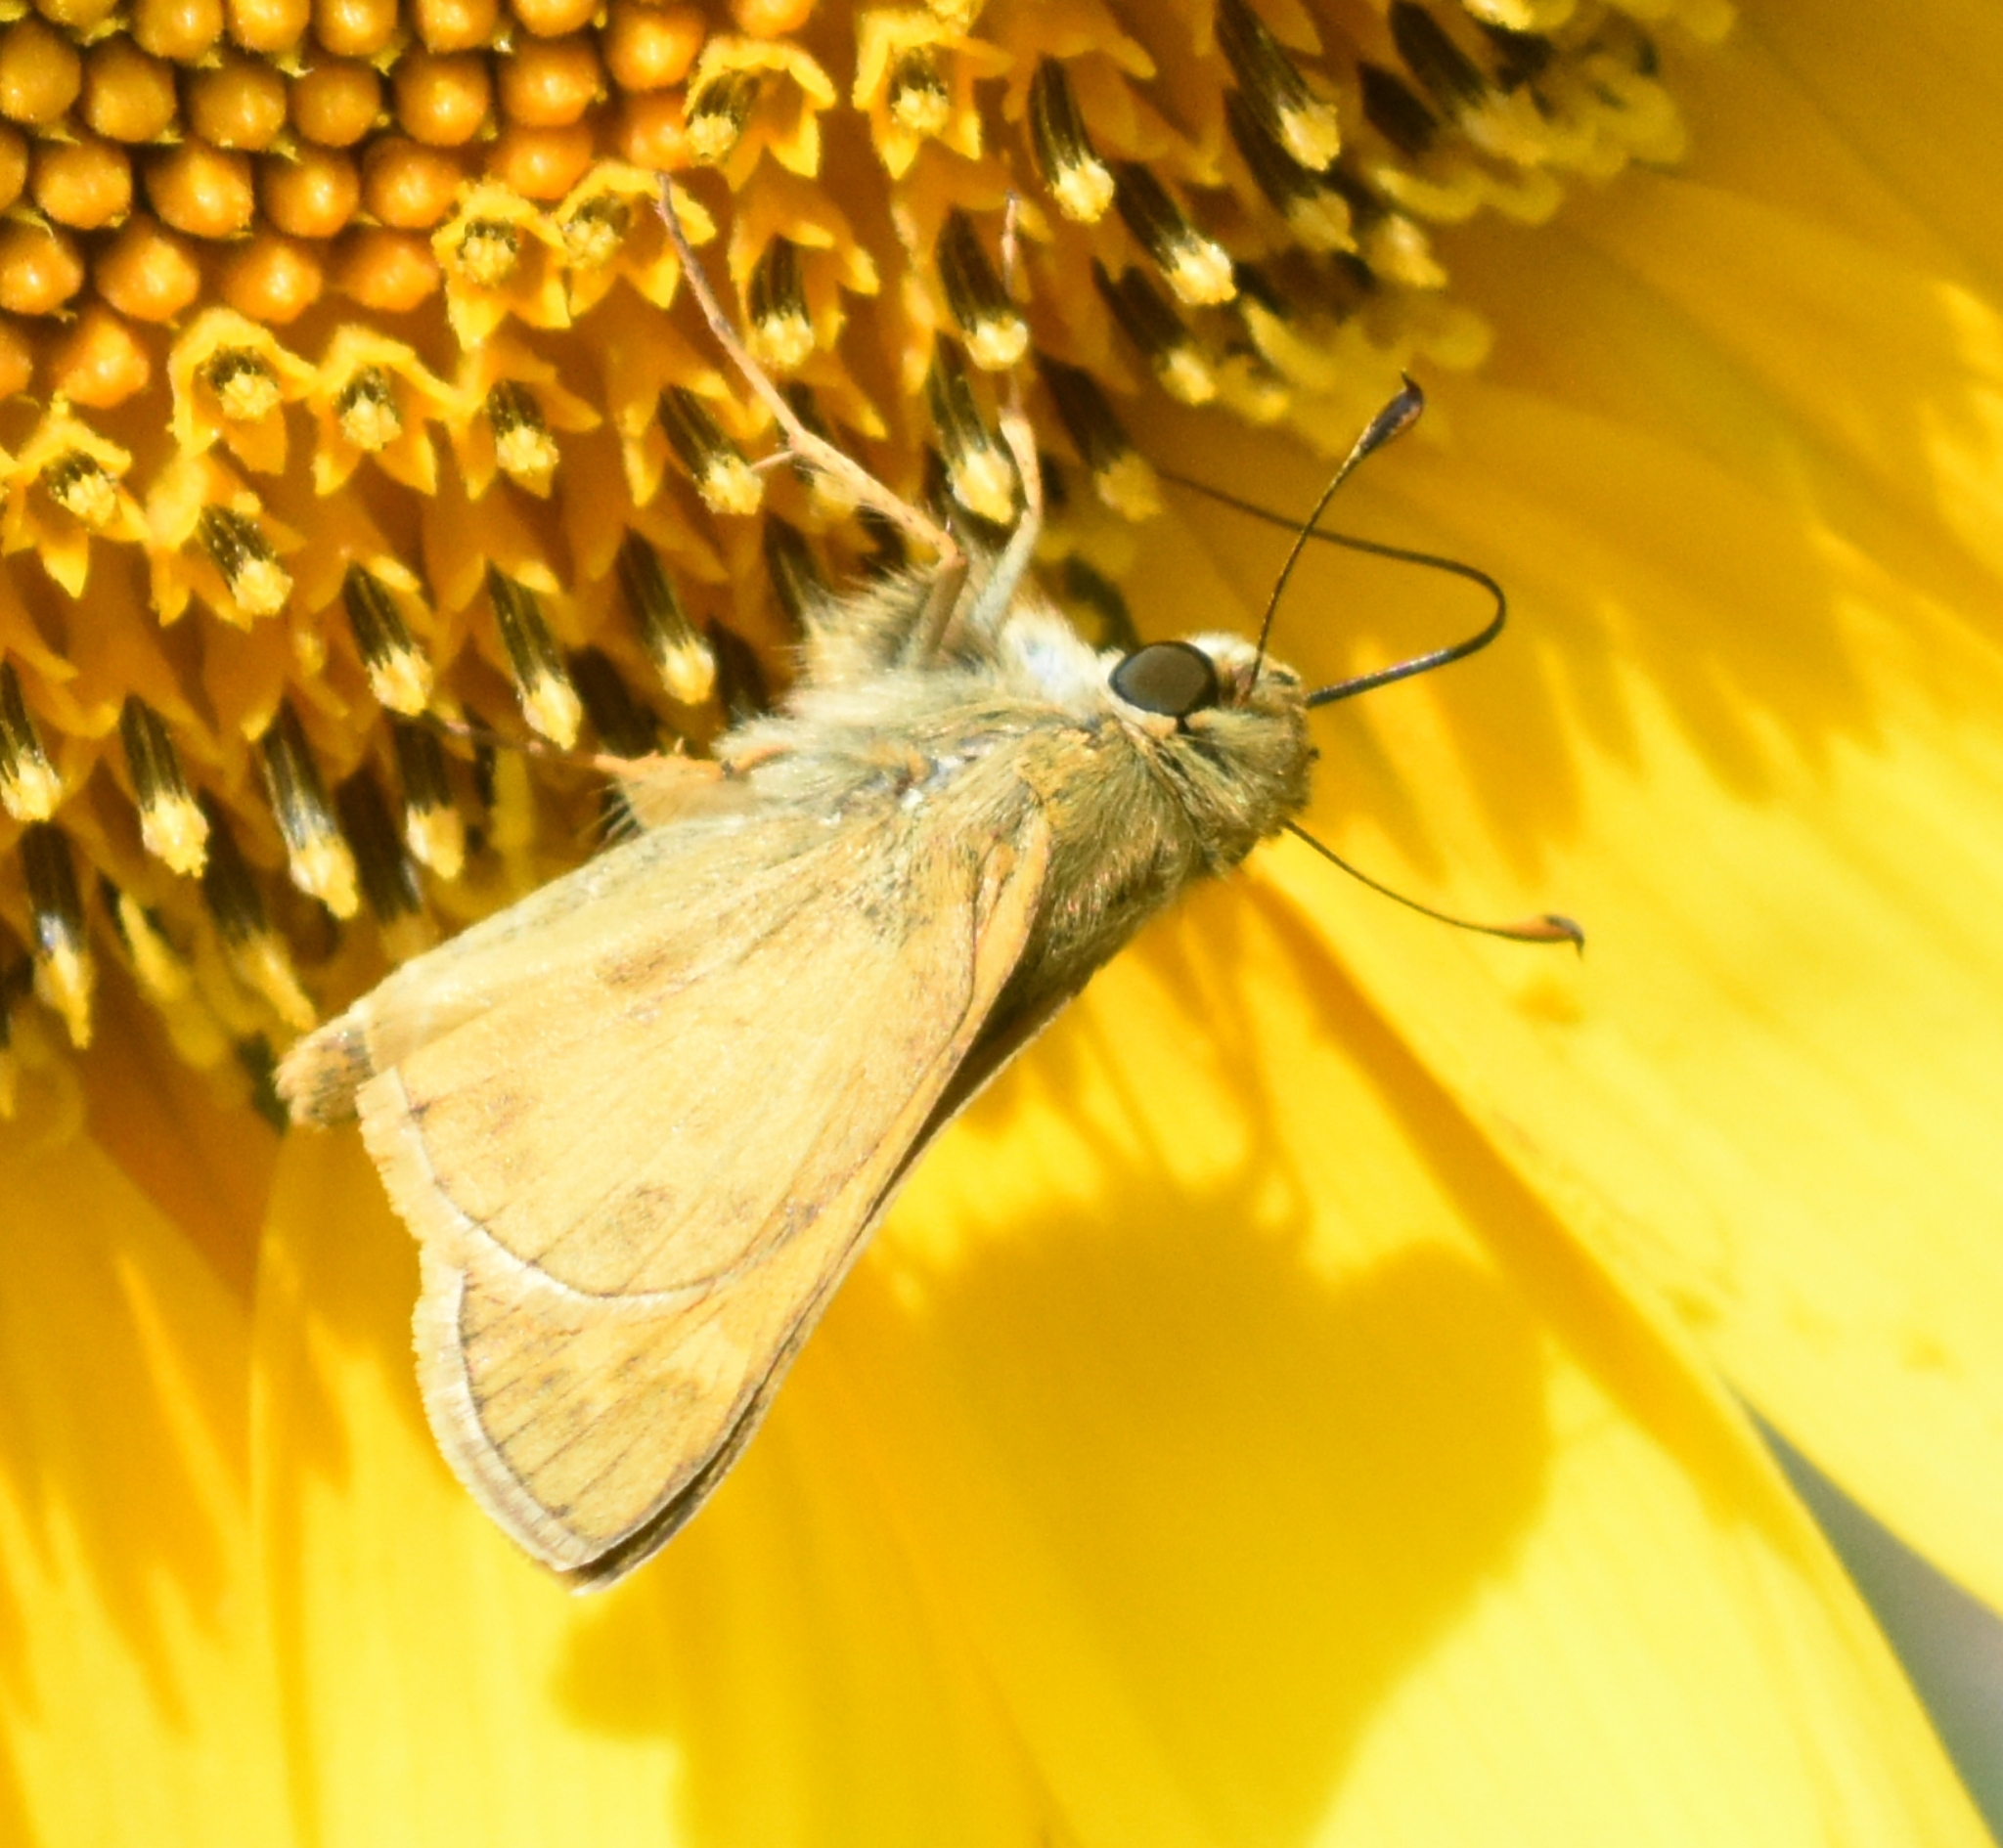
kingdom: Animalia
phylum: Arthropoda
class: Insecta
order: Lepidoptera
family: Hesperiidae
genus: Atalopedes
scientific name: Atalopedes
